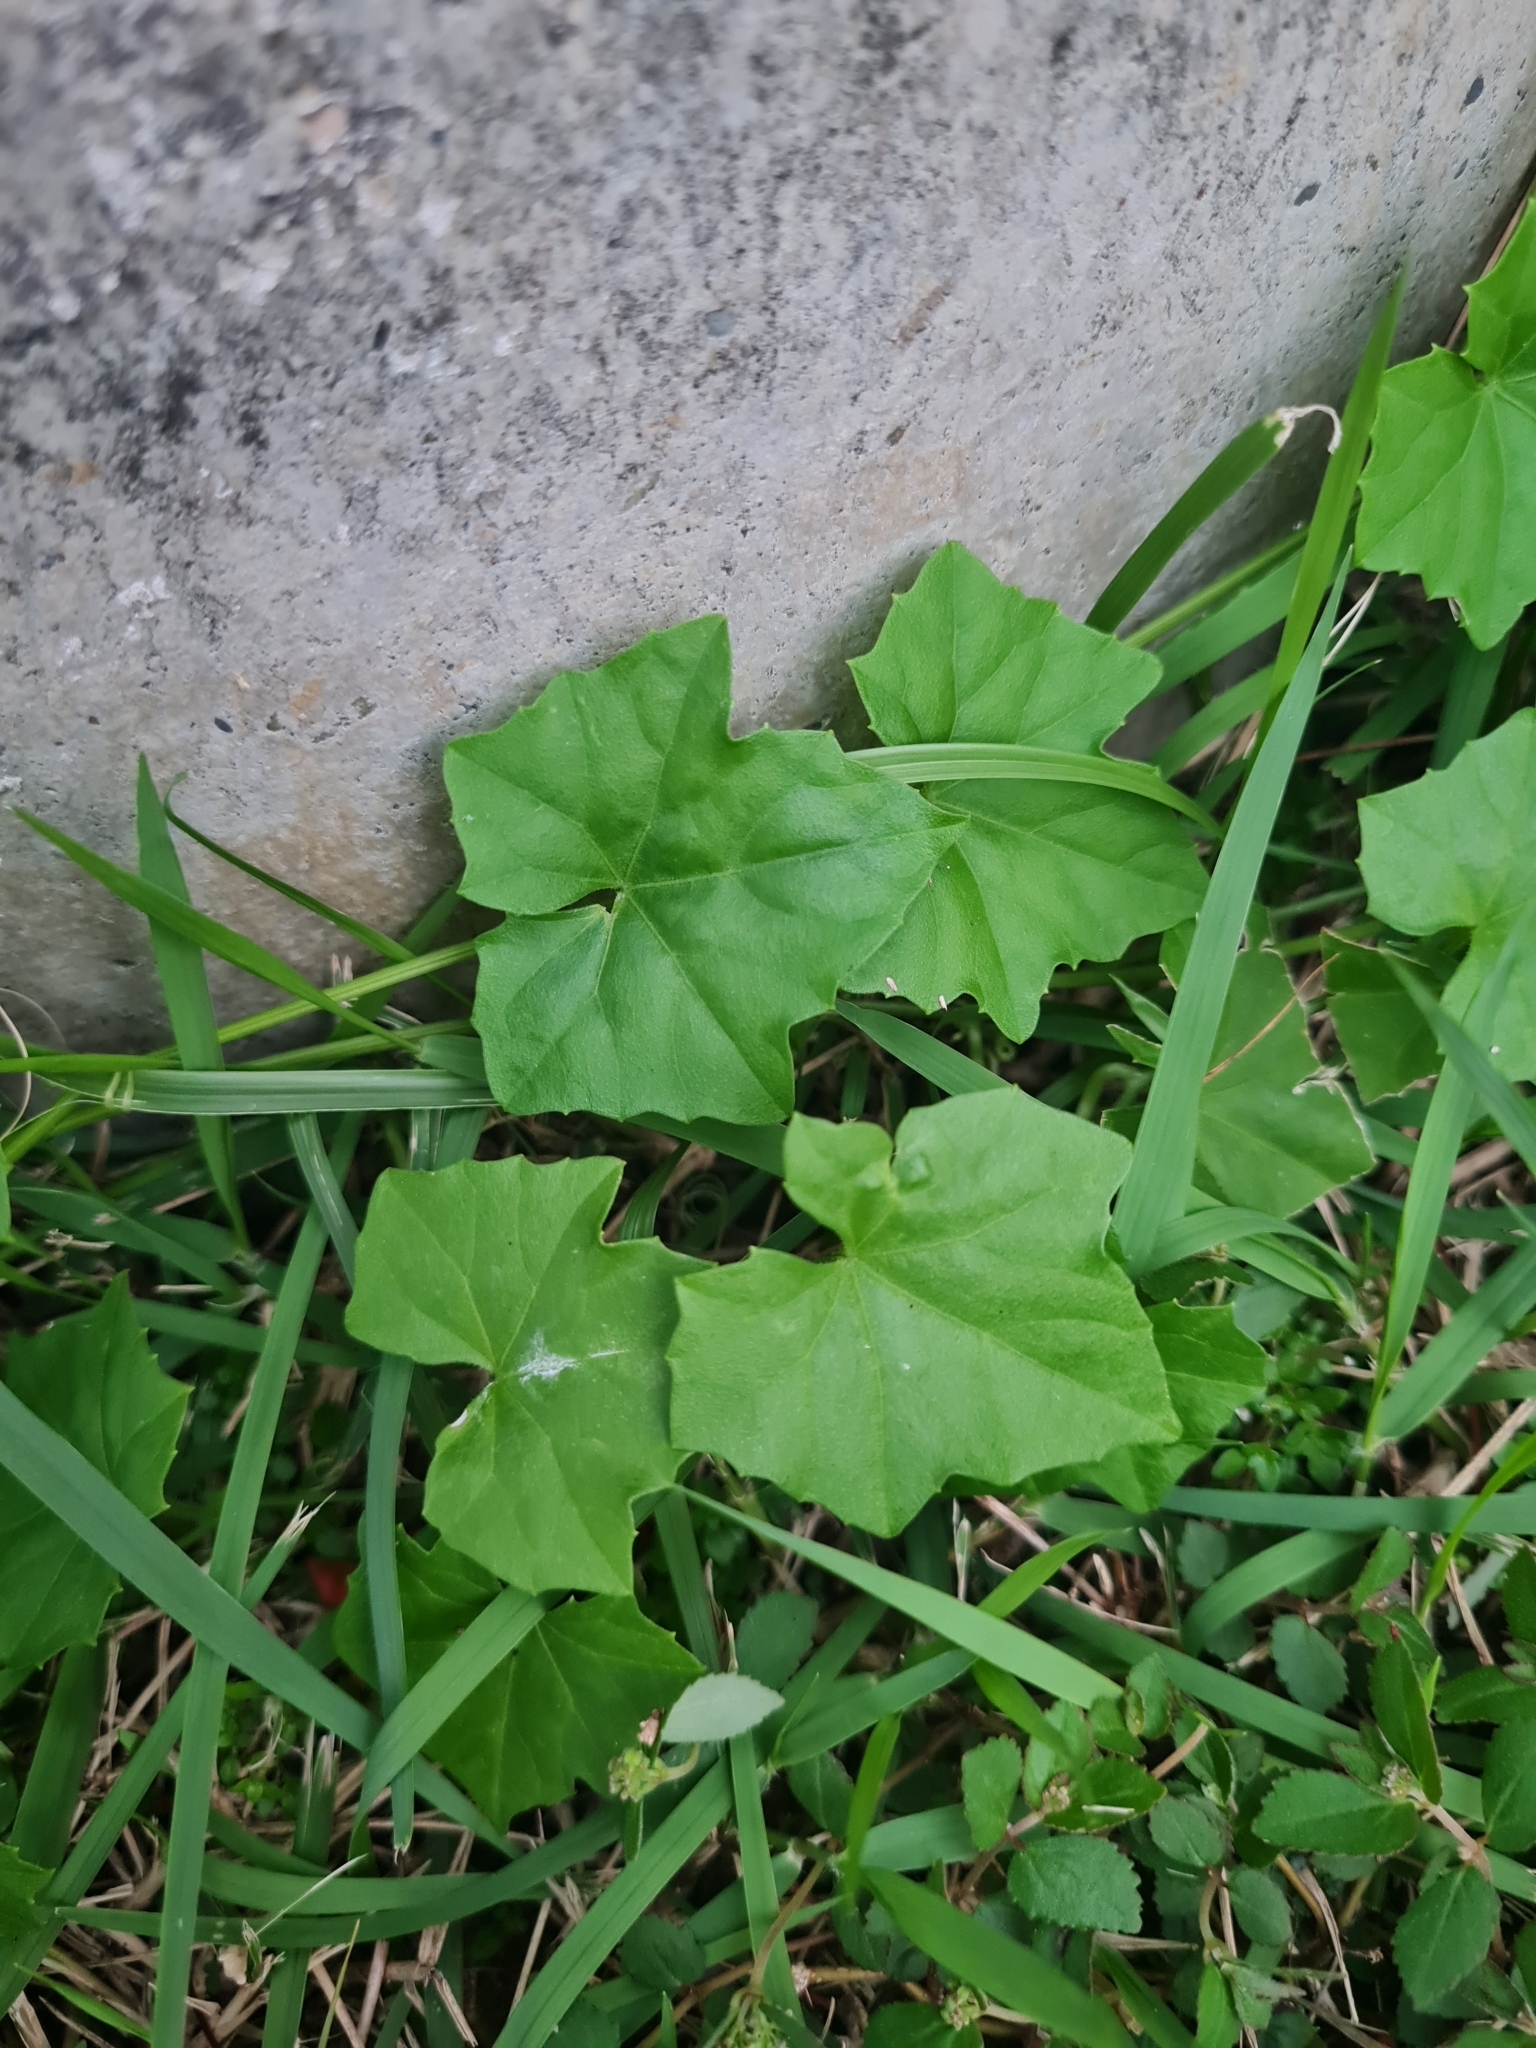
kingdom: Plantae
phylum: Tracheophyta
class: Magnoliopsida
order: Cucurbitales
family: Cucurbitaceae
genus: Melothria
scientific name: Melothria pendula
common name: Creeping-cucumber
